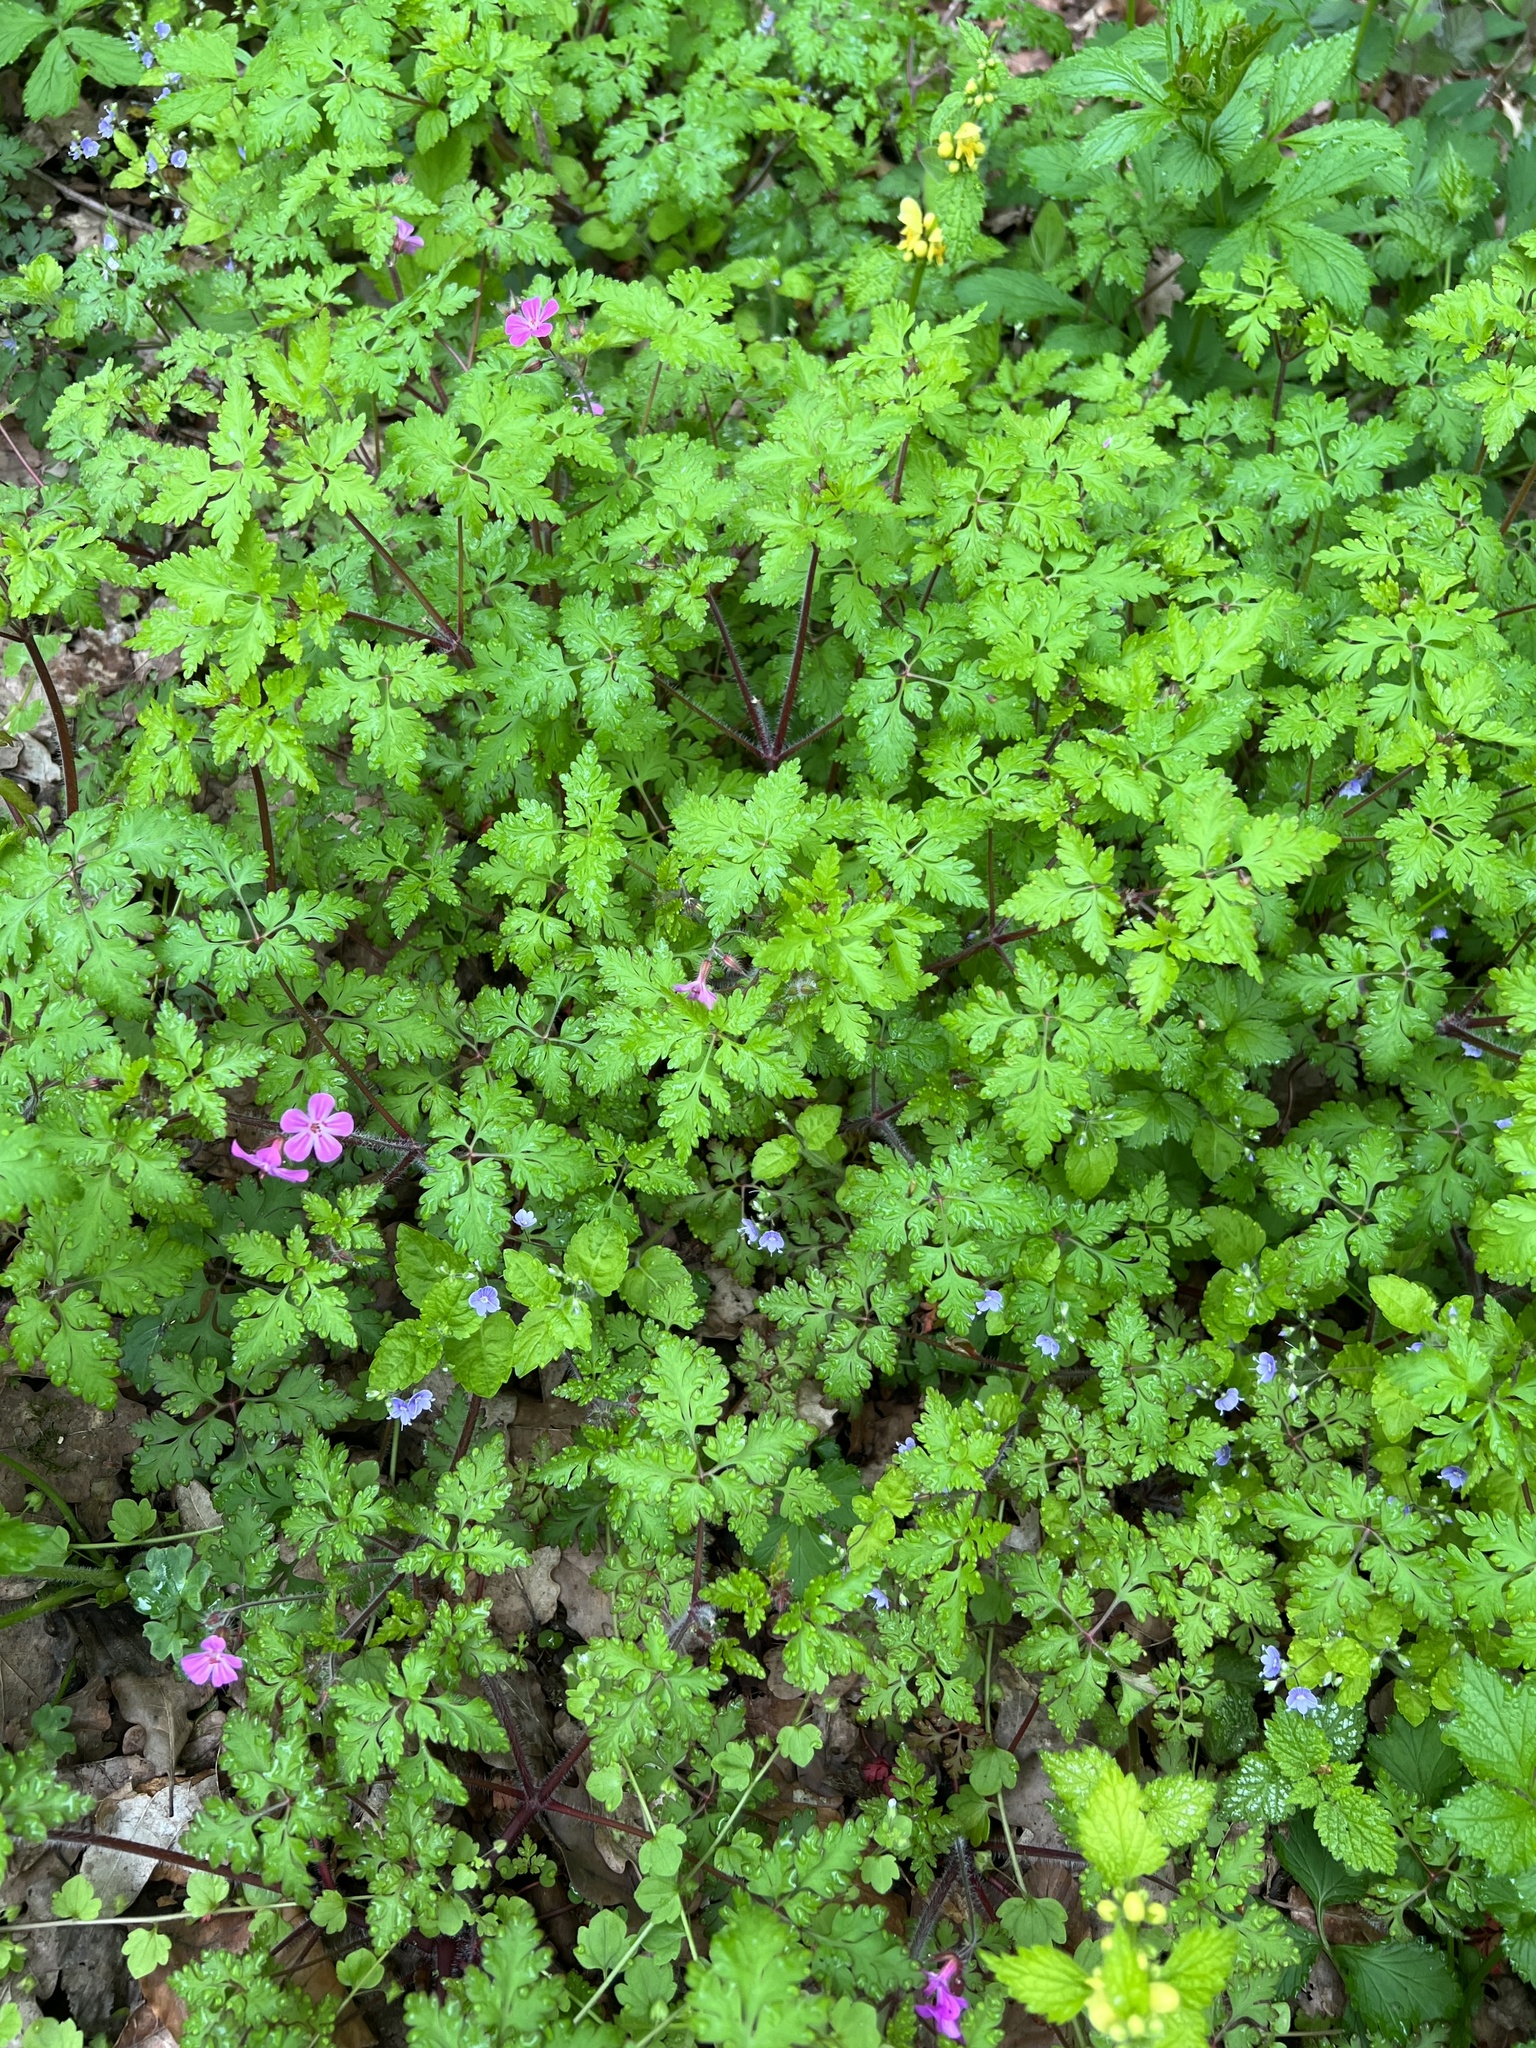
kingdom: Plantae
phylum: Tracheophyta
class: Magnoliopsida
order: Geraniales
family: Geraniaceae
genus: Geranium
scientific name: Geranium robertianum
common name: Herb-robert
